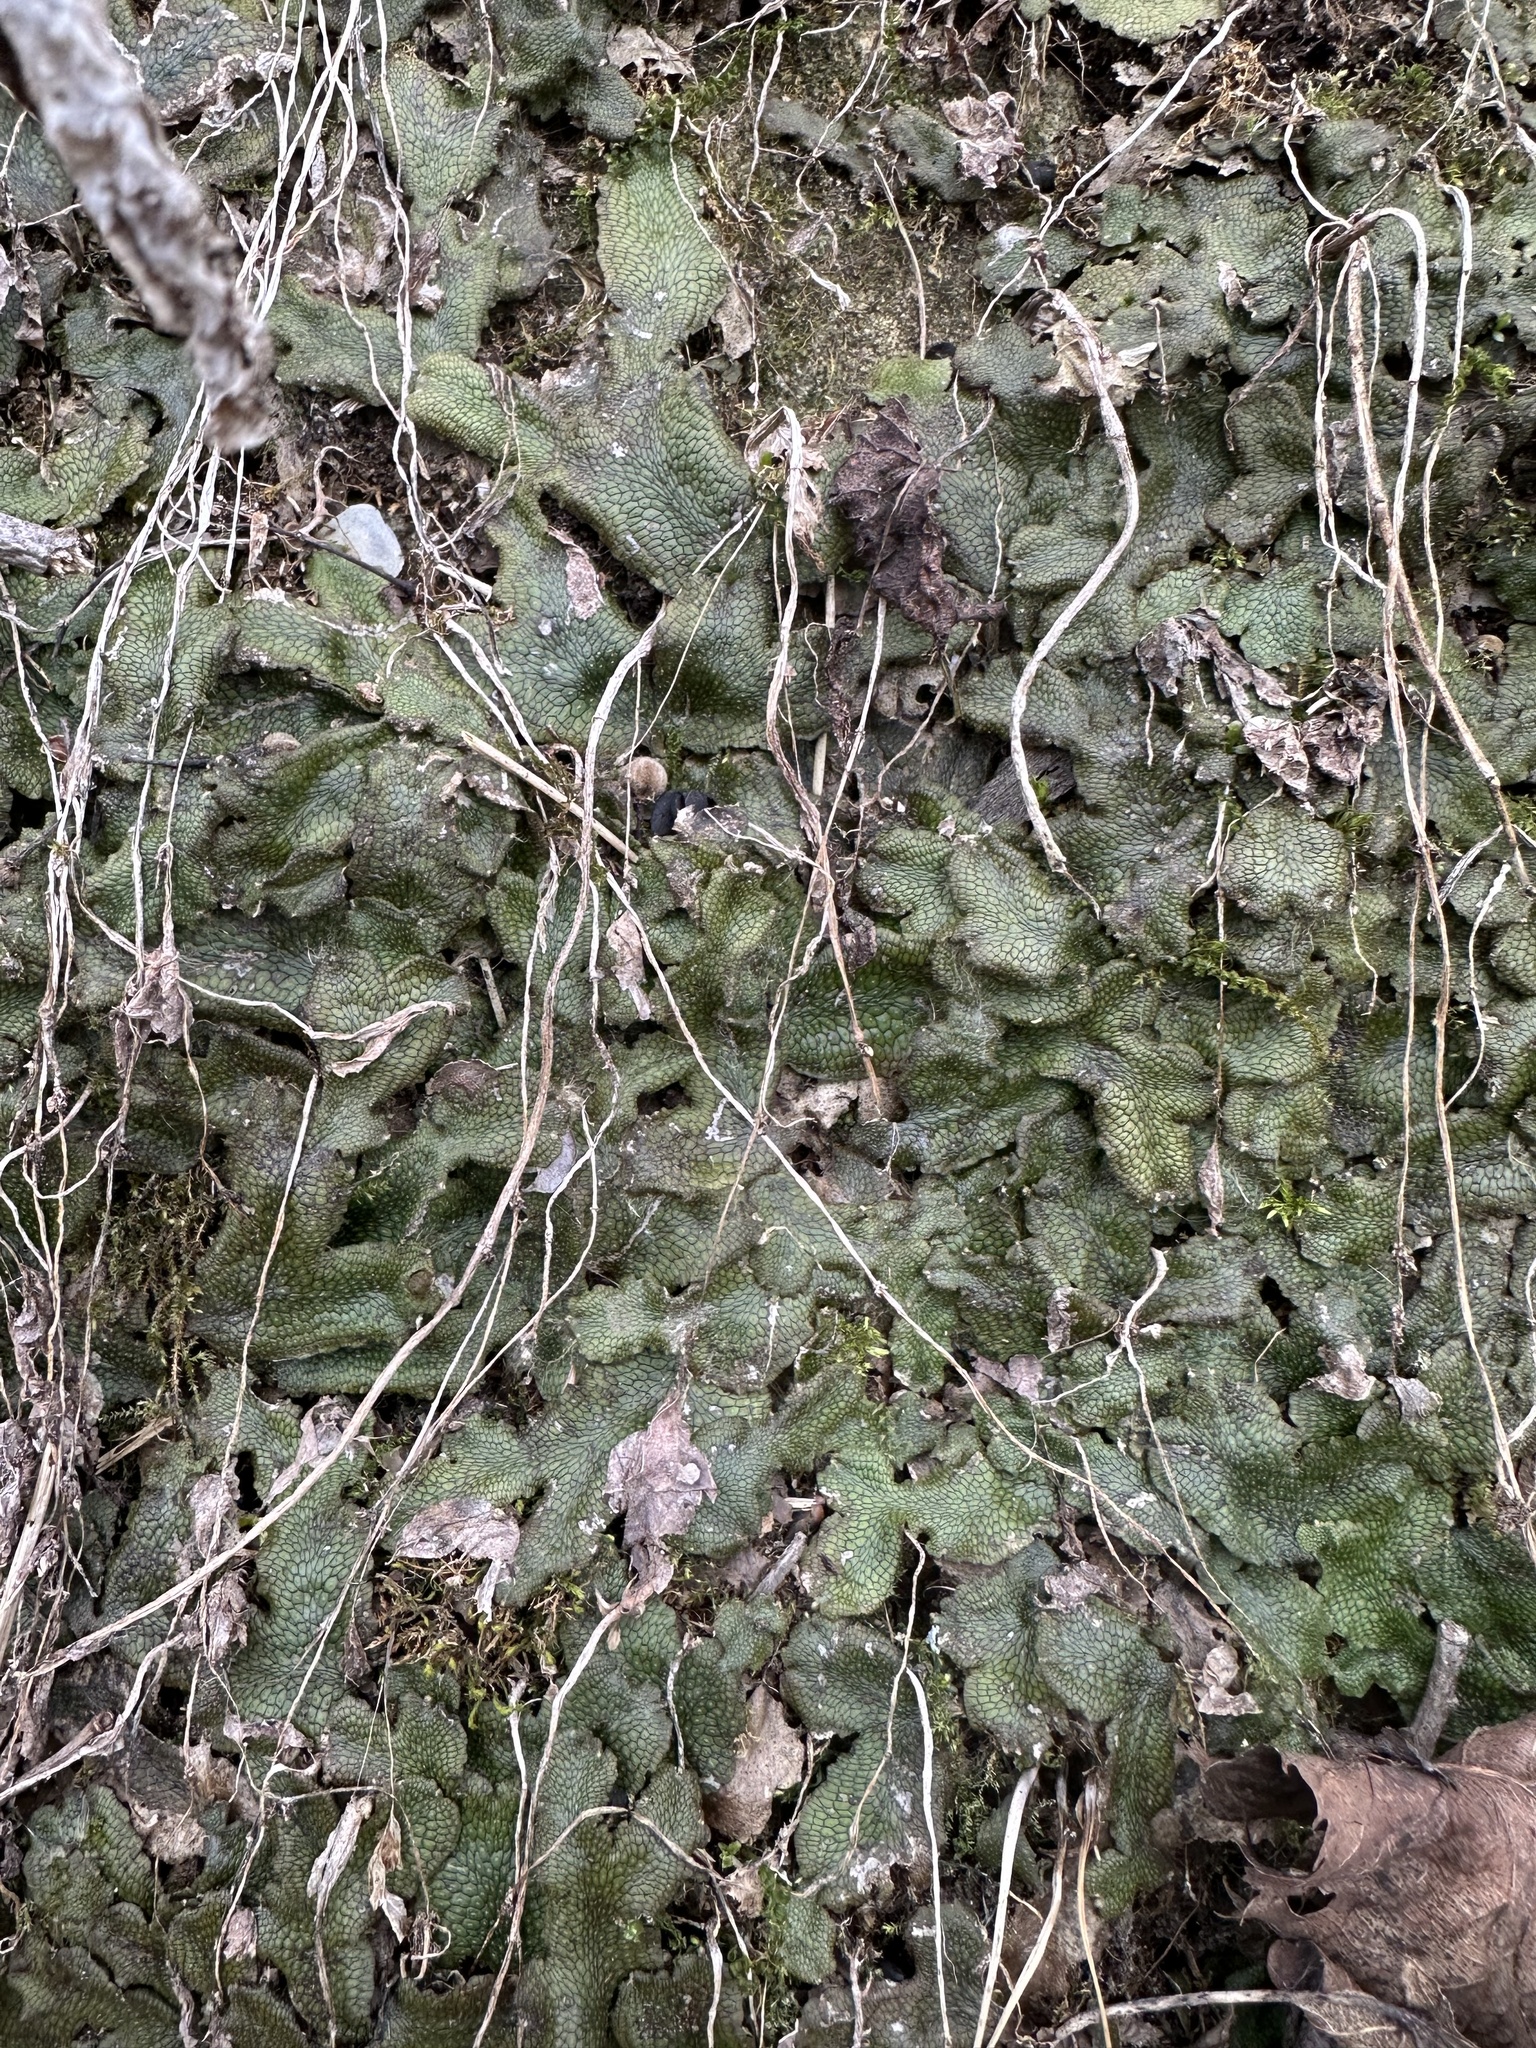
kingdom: Plantae
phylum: Marchantiophyta
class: Marchantiopsida
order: Marchantiales
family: Conocephalaceae
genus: Conocephalum
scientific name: Conocephalum salebrosum
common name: Cat-tongue liverwort
